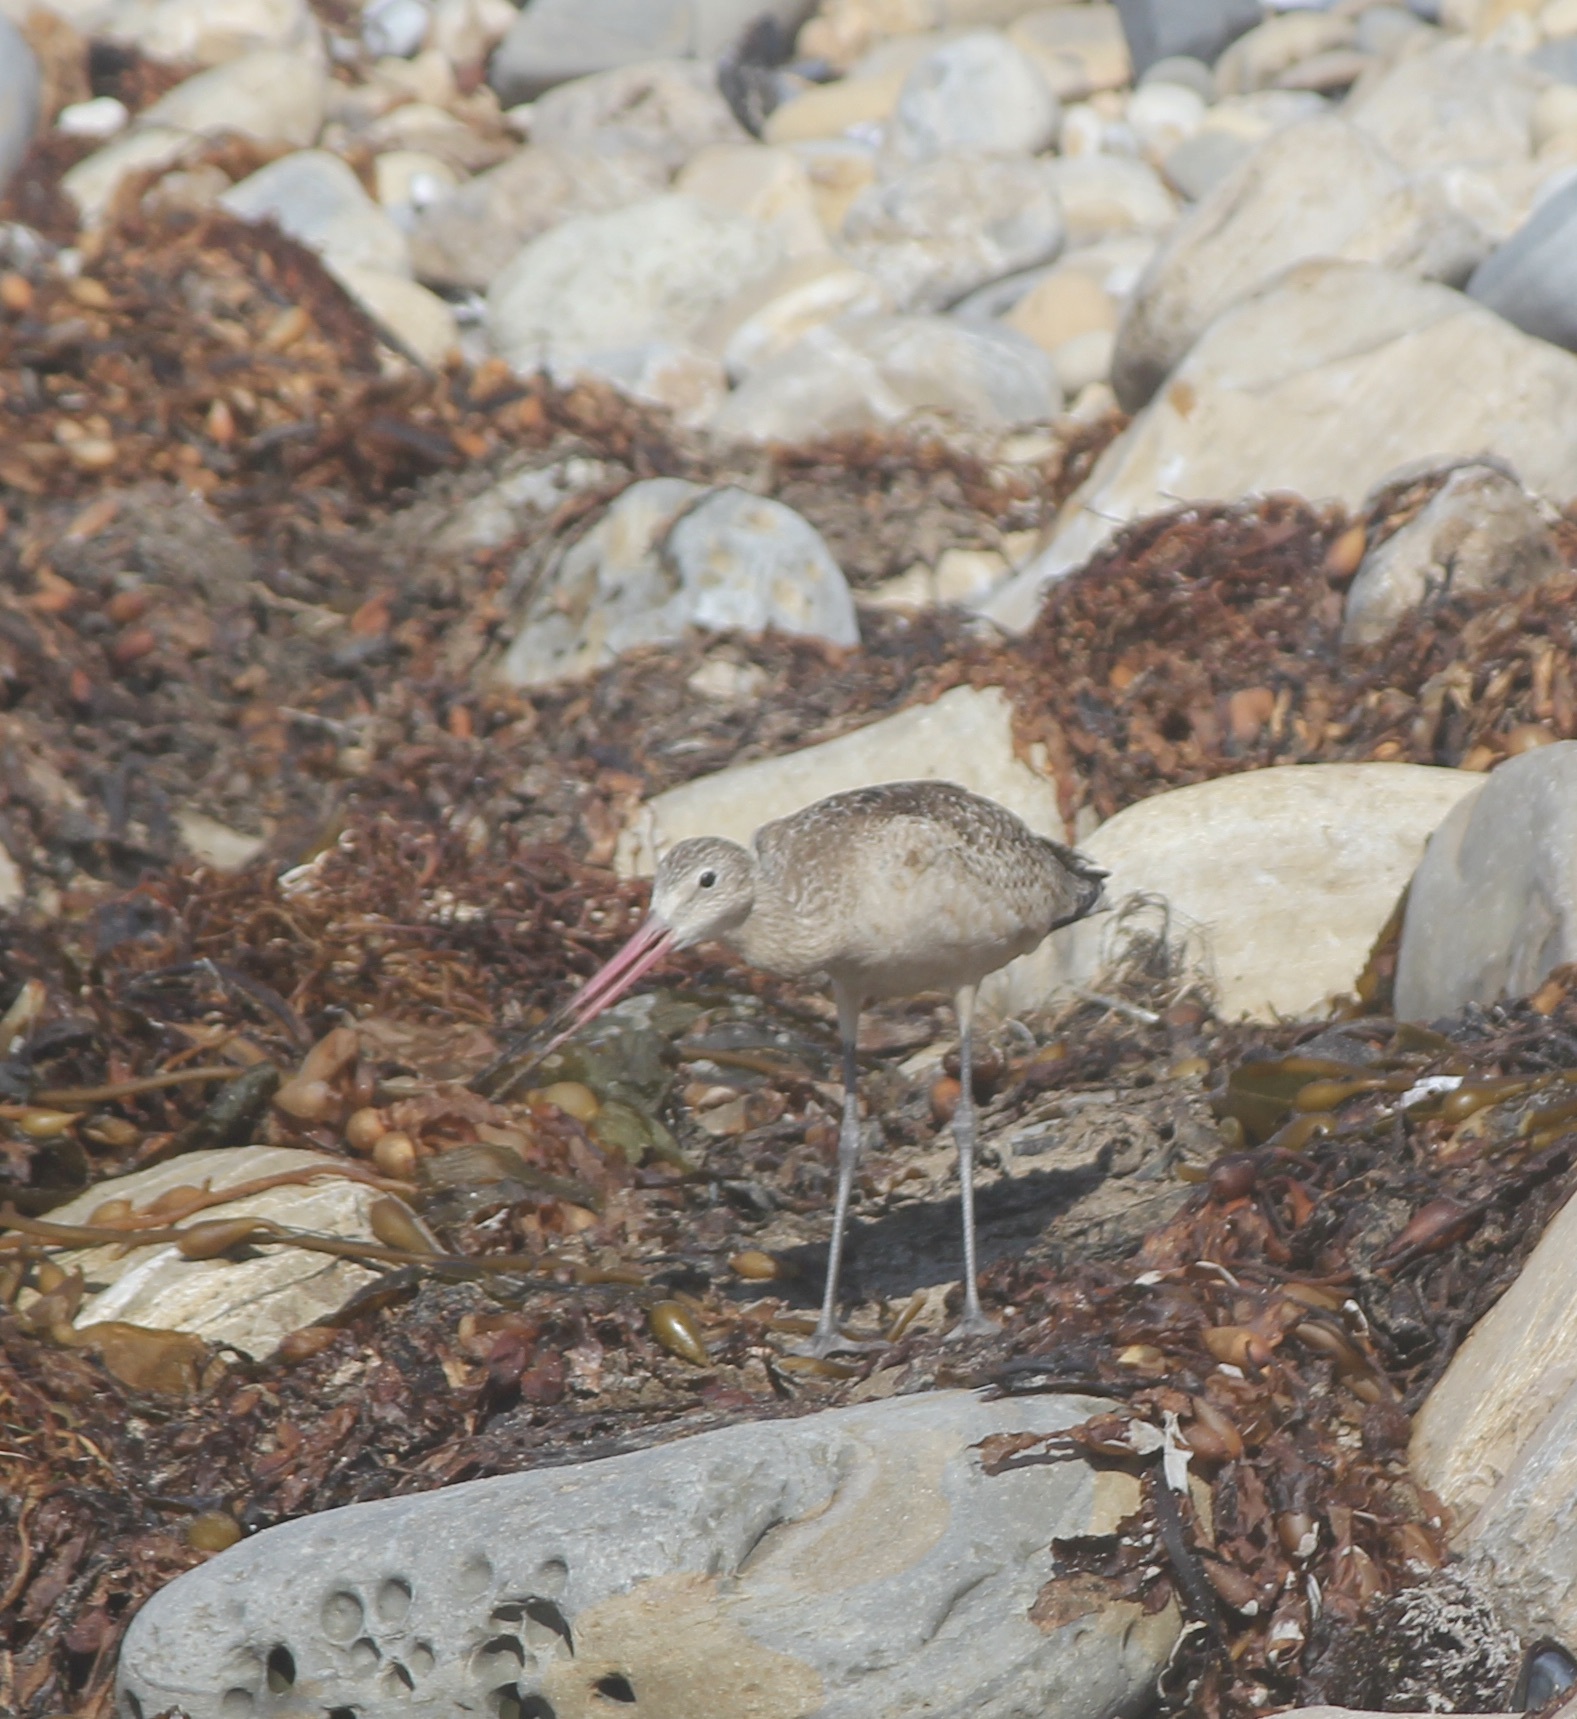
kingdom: Animalia
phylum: Chordata
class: Aves
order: Charadriiformes
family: Scolopacidae
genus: Limosa
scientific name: Limosa fedoa
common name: Marbled godwit
